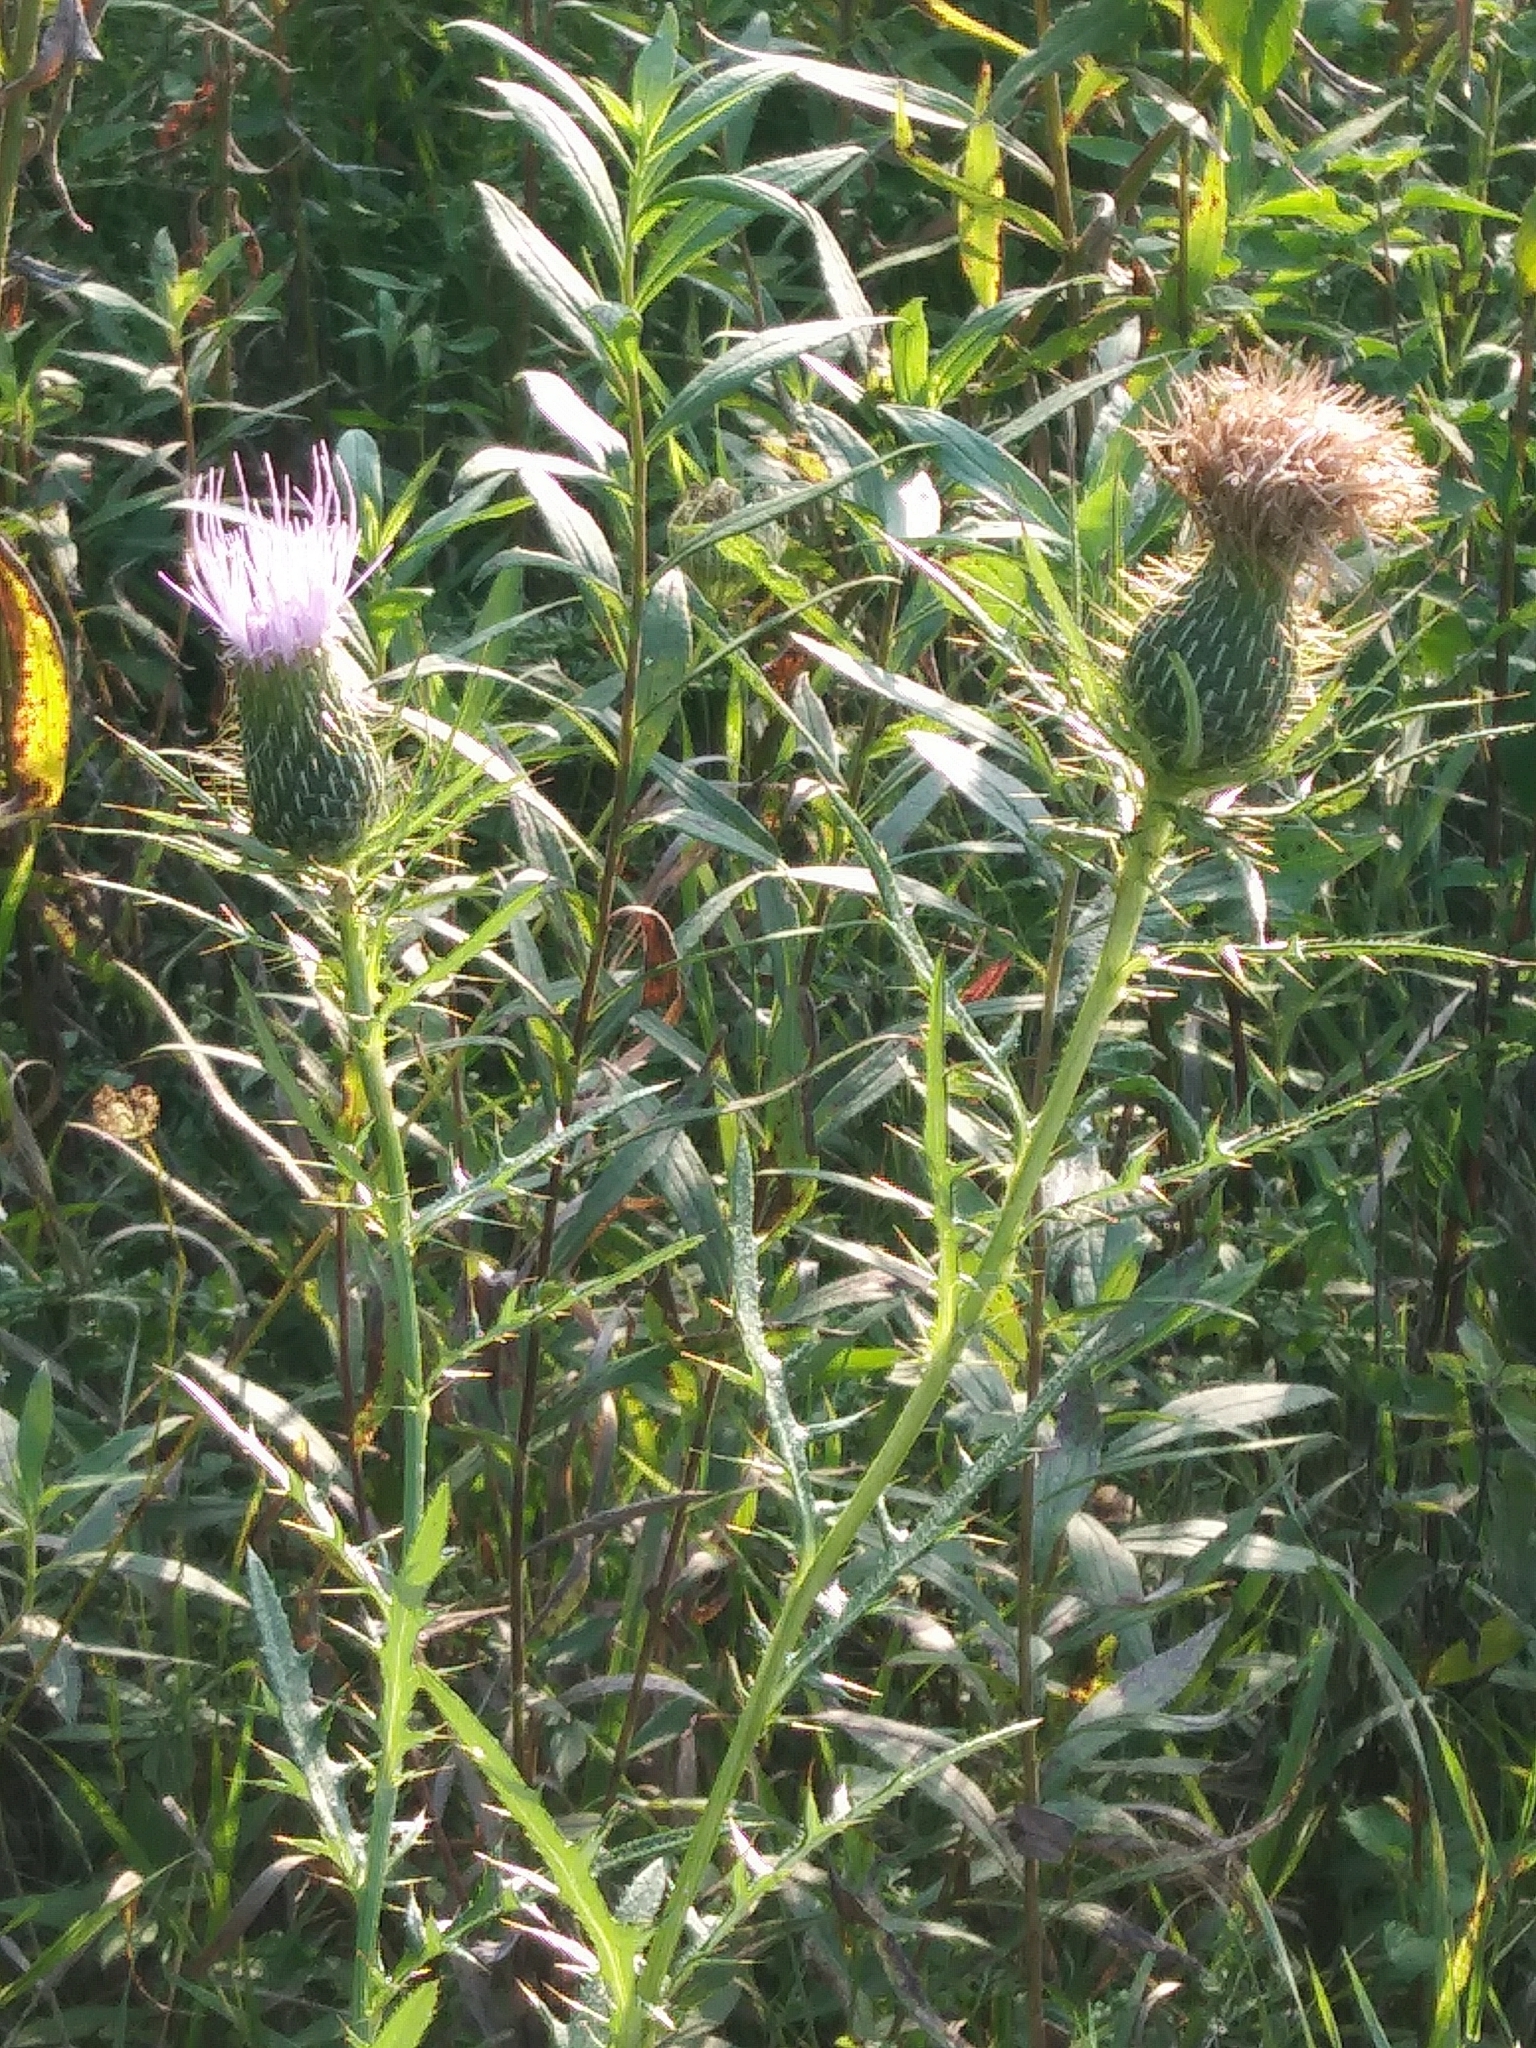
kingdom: Plantae
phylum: Tracheophyta
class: Magnoliopsida
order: Asterales
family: Asteraceae
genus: Cirsium
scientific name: Cirsium discolor
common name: Field thistle
